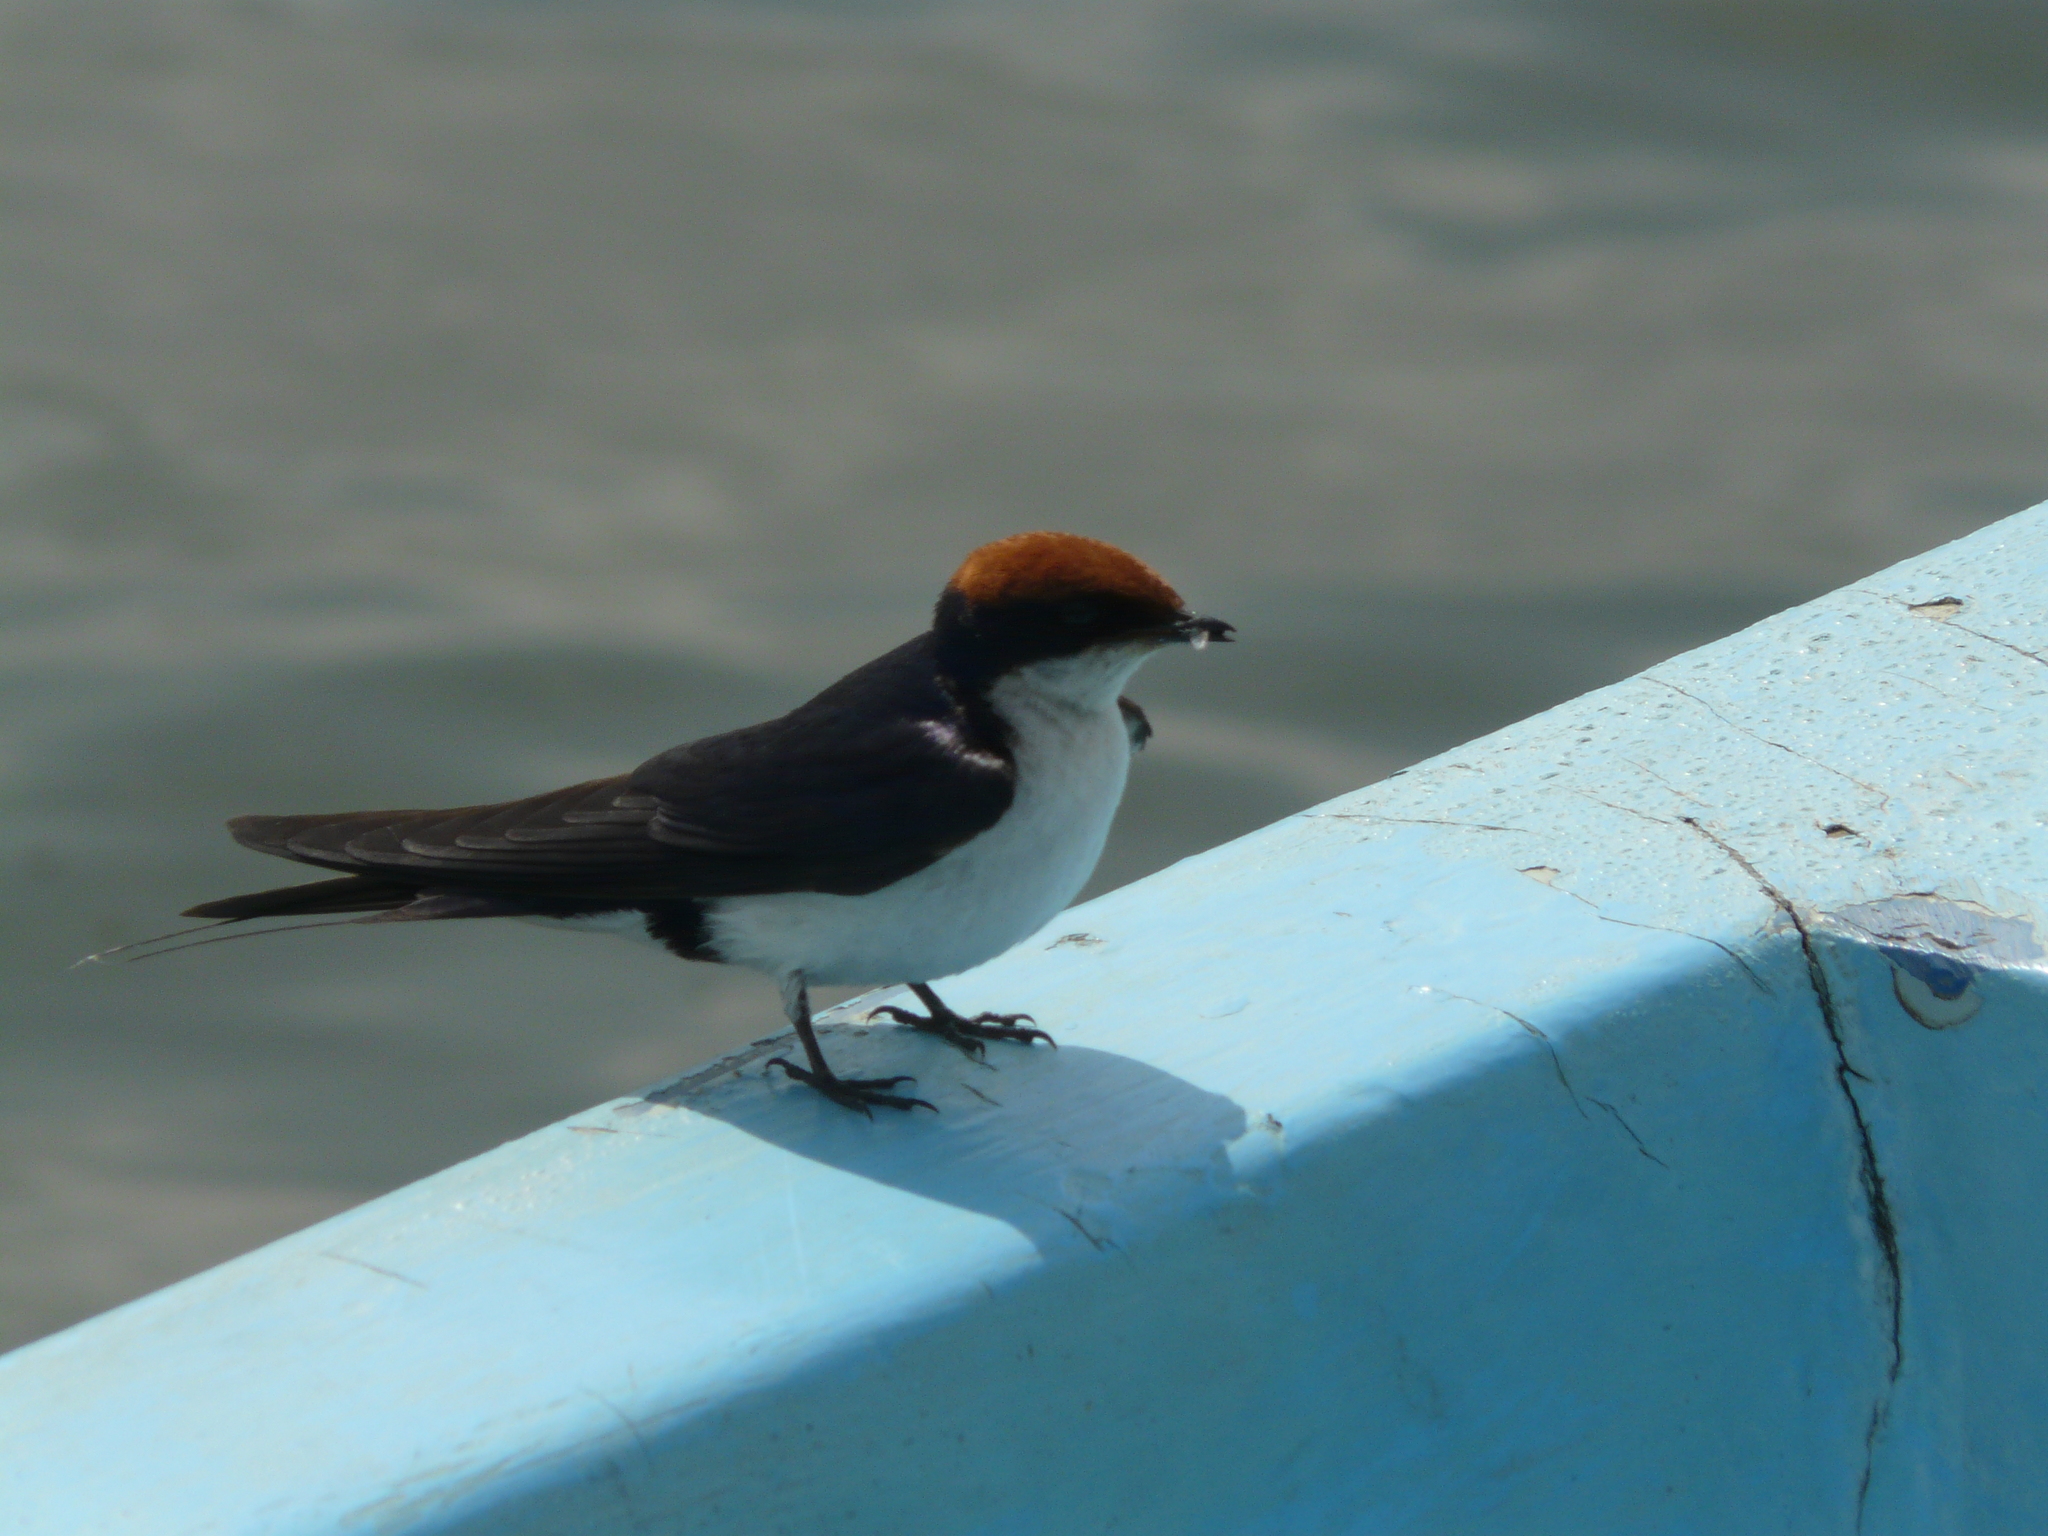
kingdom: Animalia
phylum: Chordata
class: Aves
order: Passeriformes
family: Hirundinidae
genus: Hirundo
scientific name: Hirundo smithii
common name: Wire-tailed swallow
